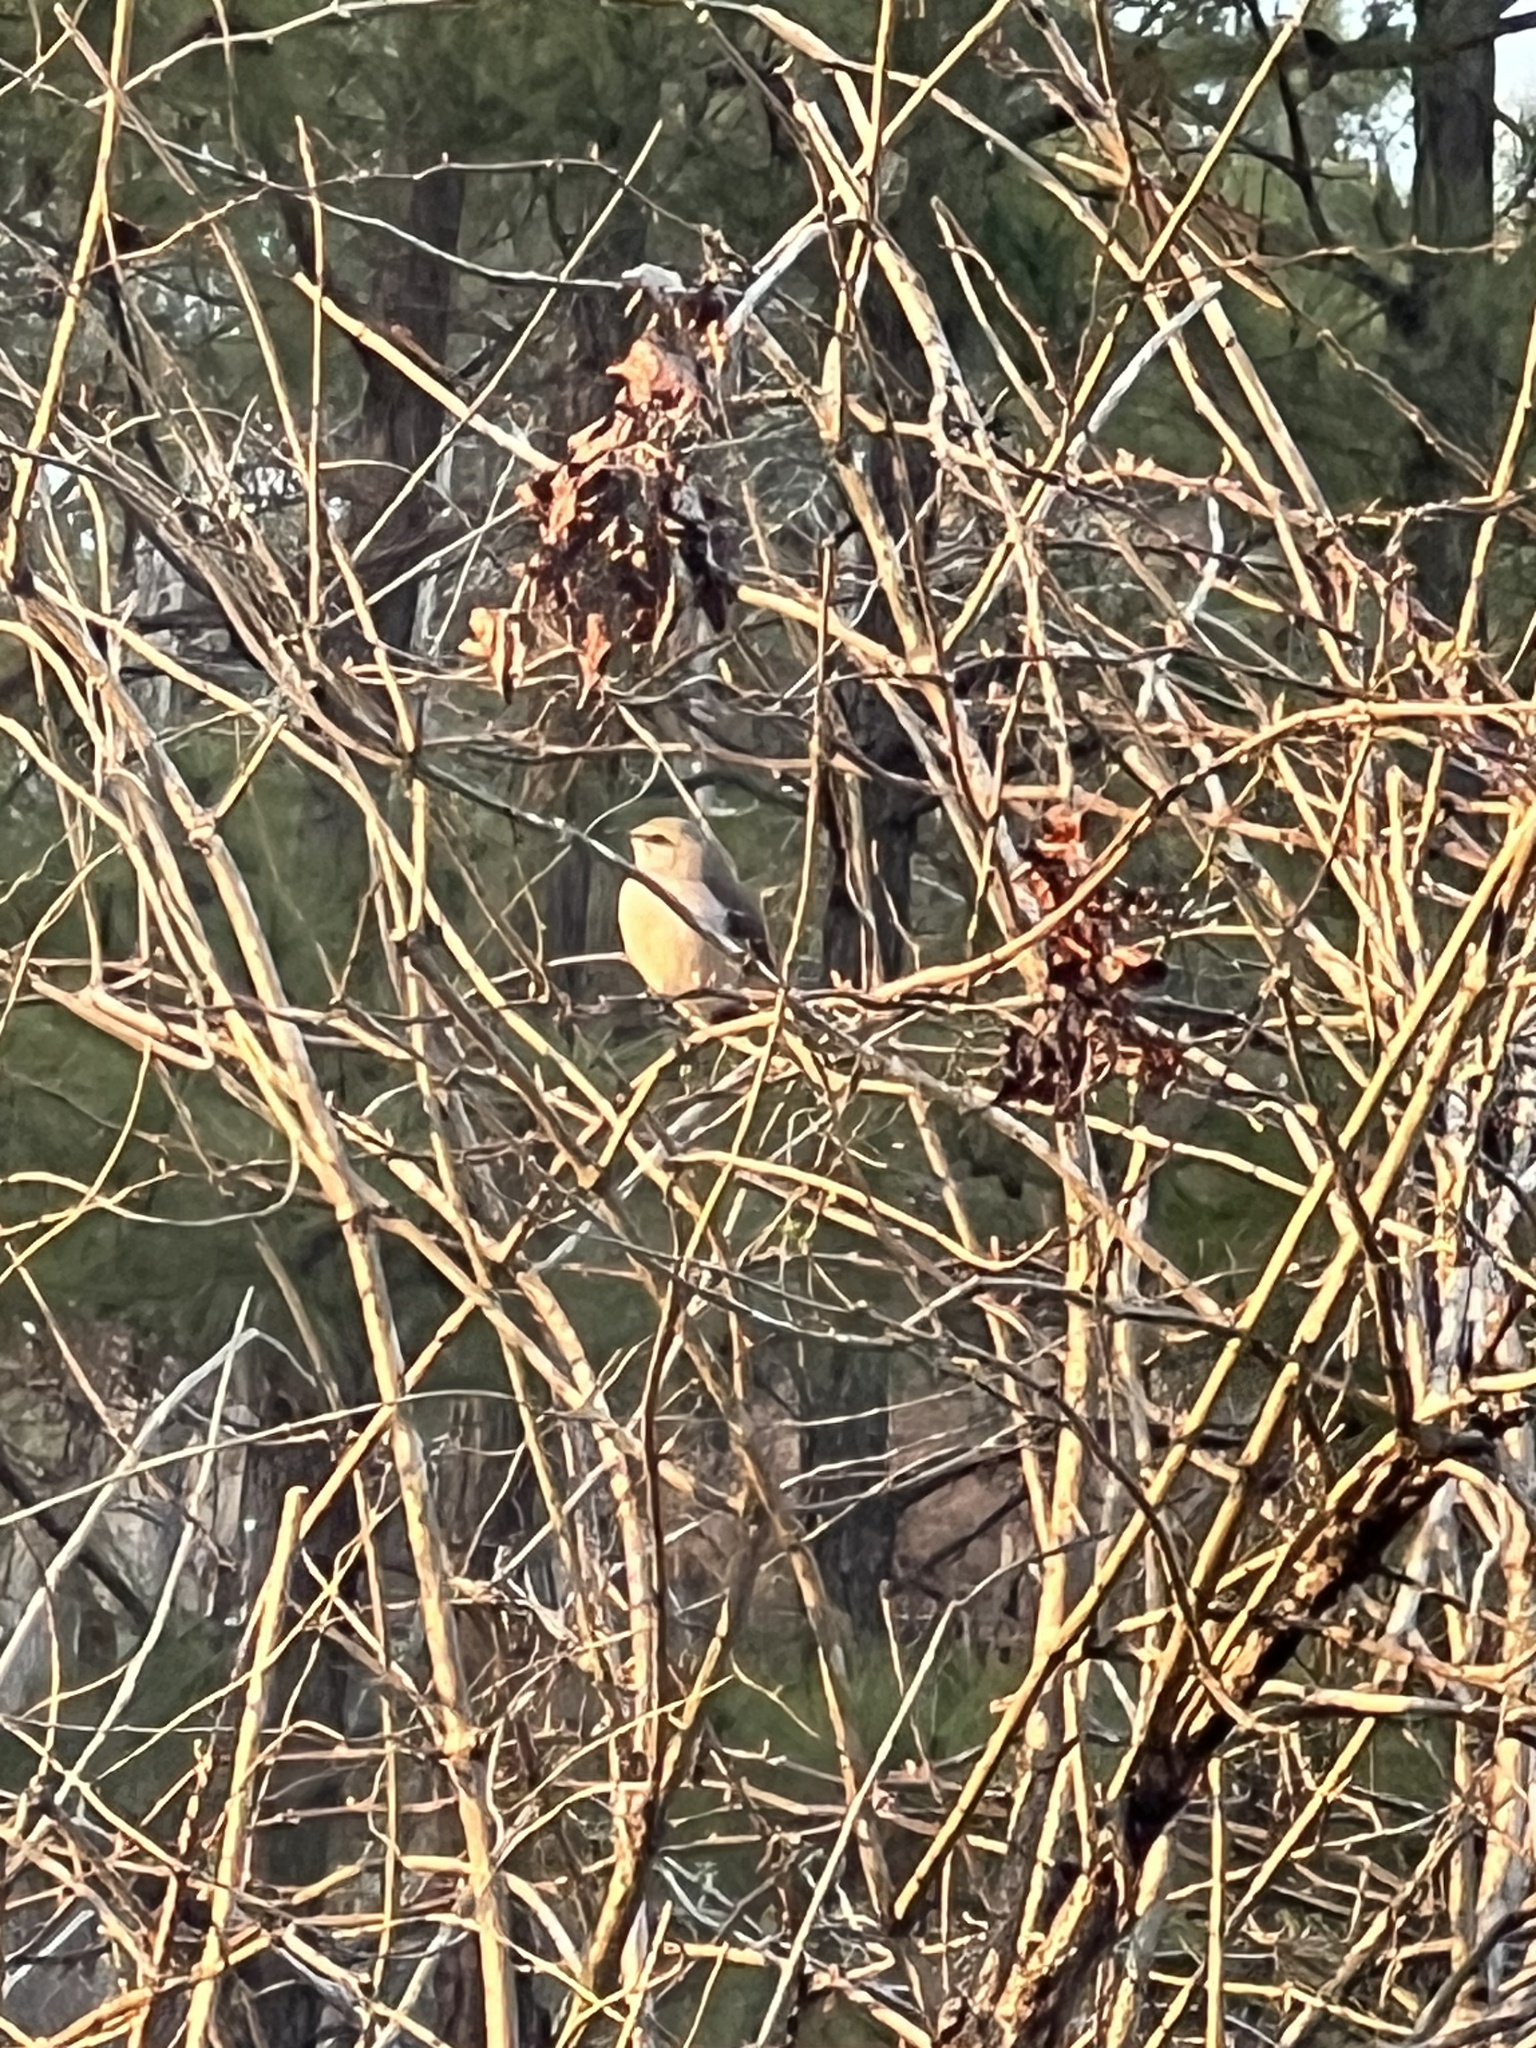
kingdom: Animalia
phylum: Chordata
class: Aves
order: Passeriformes
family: Mimidae
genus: Mimus
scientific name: Mimus polyglottos
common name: Northern mockingbird
